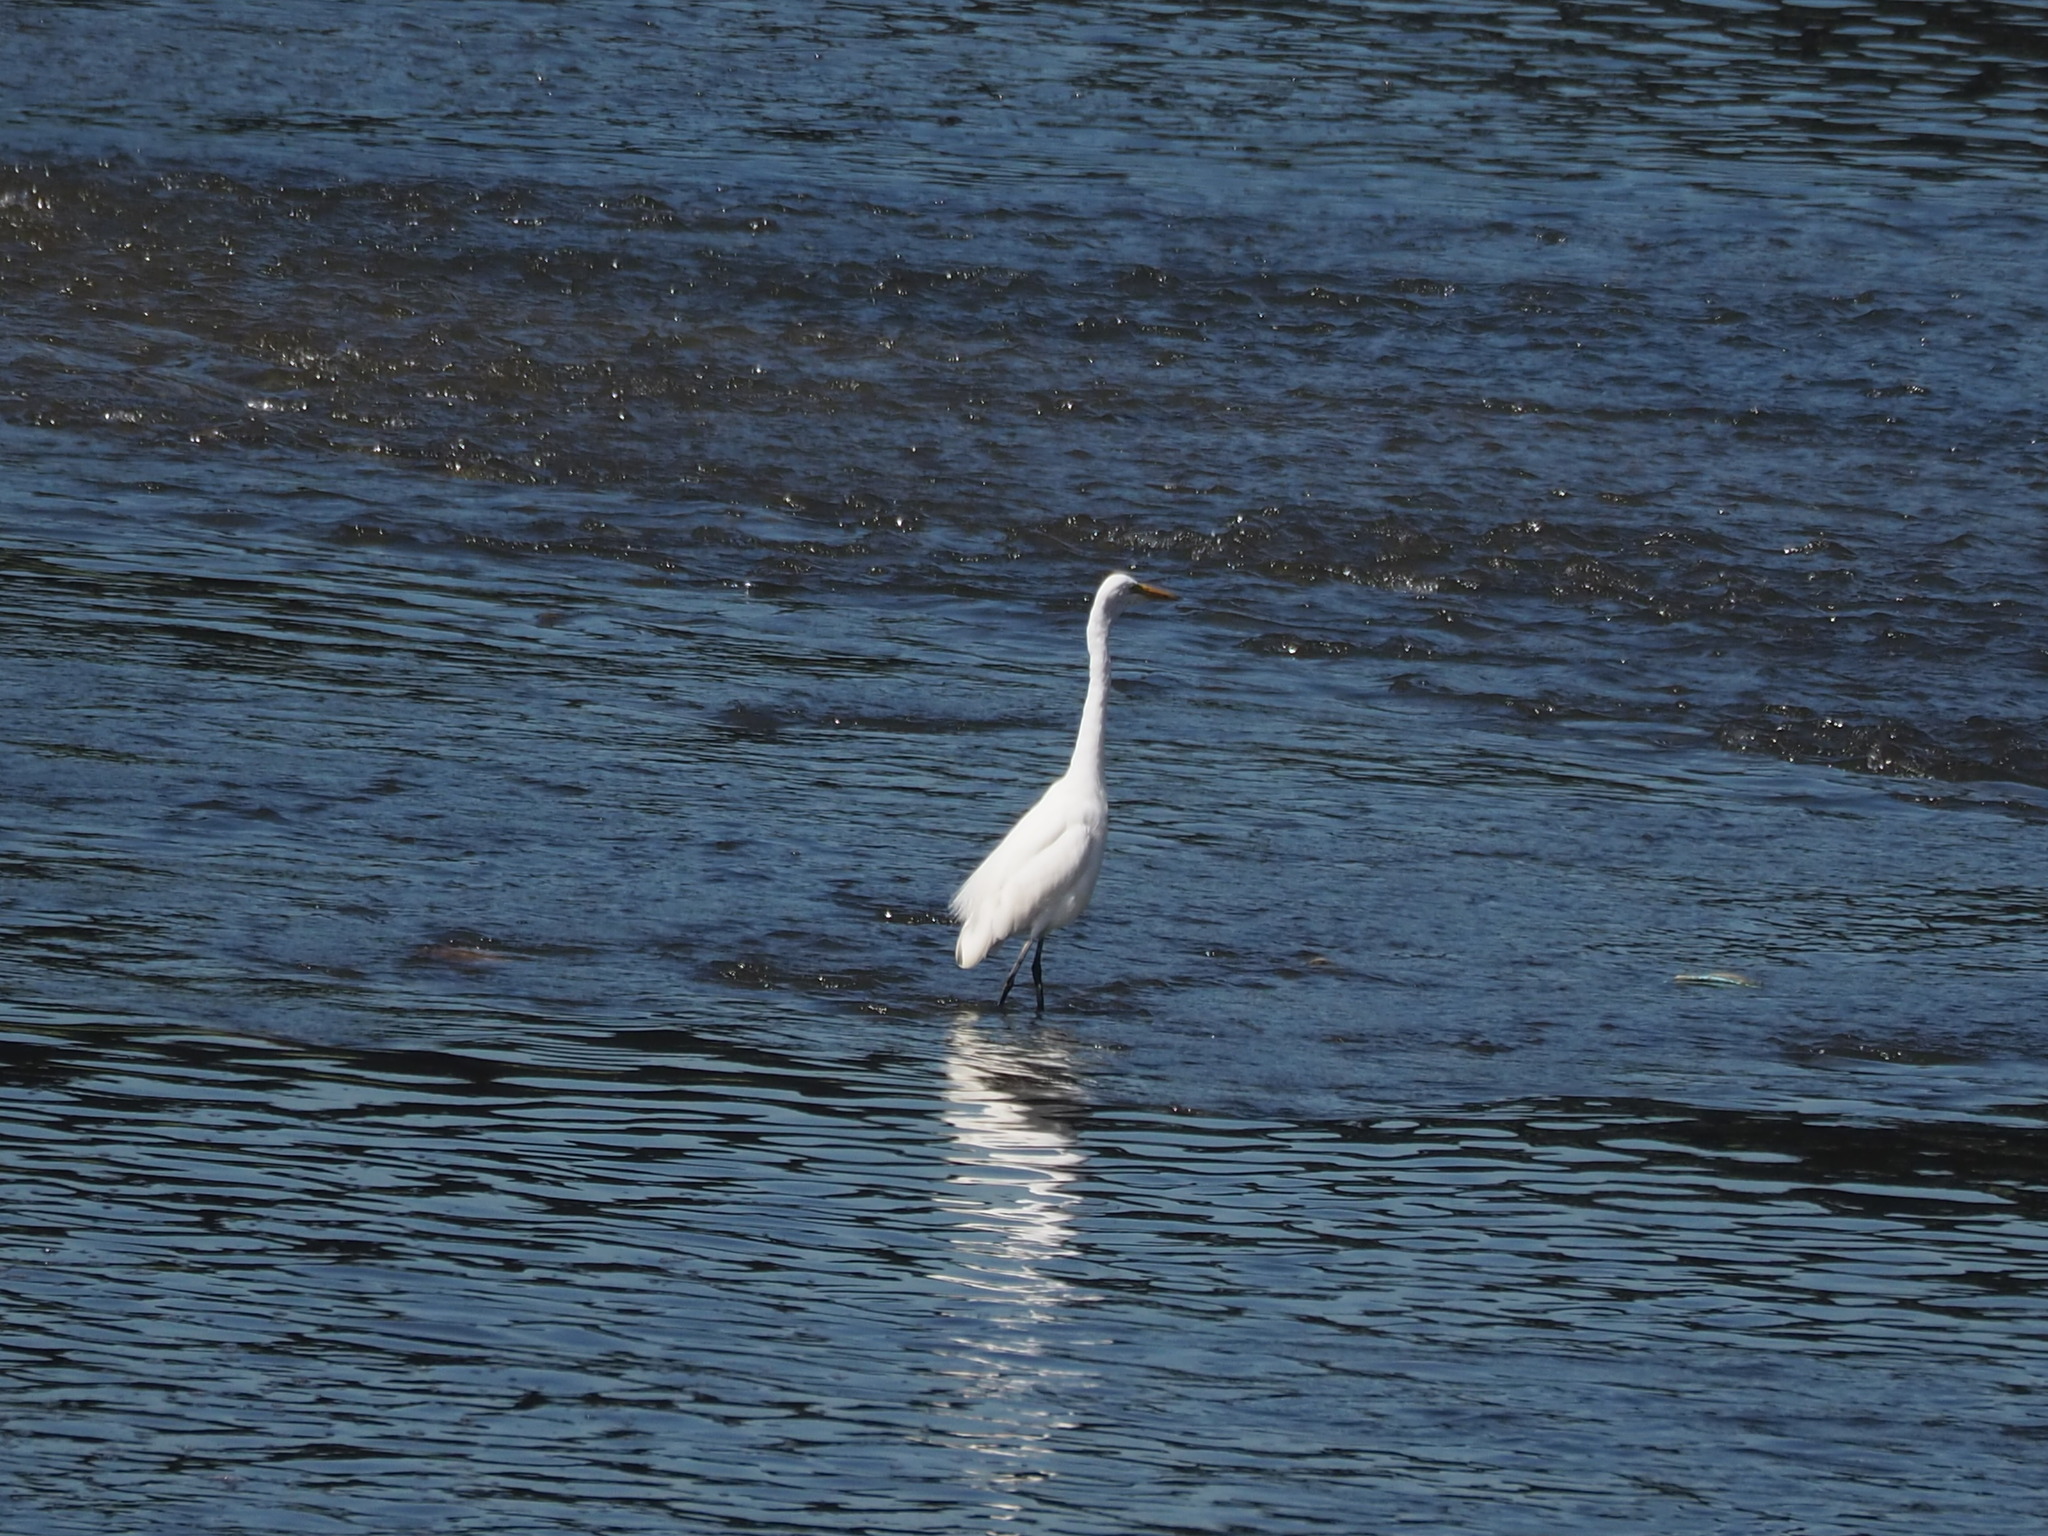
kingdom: Animalia
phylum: Chordata
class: Aves
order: Pelecaniformes
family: Ardeidae
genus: Ardea
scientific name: Ardea alba
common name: Great egret
